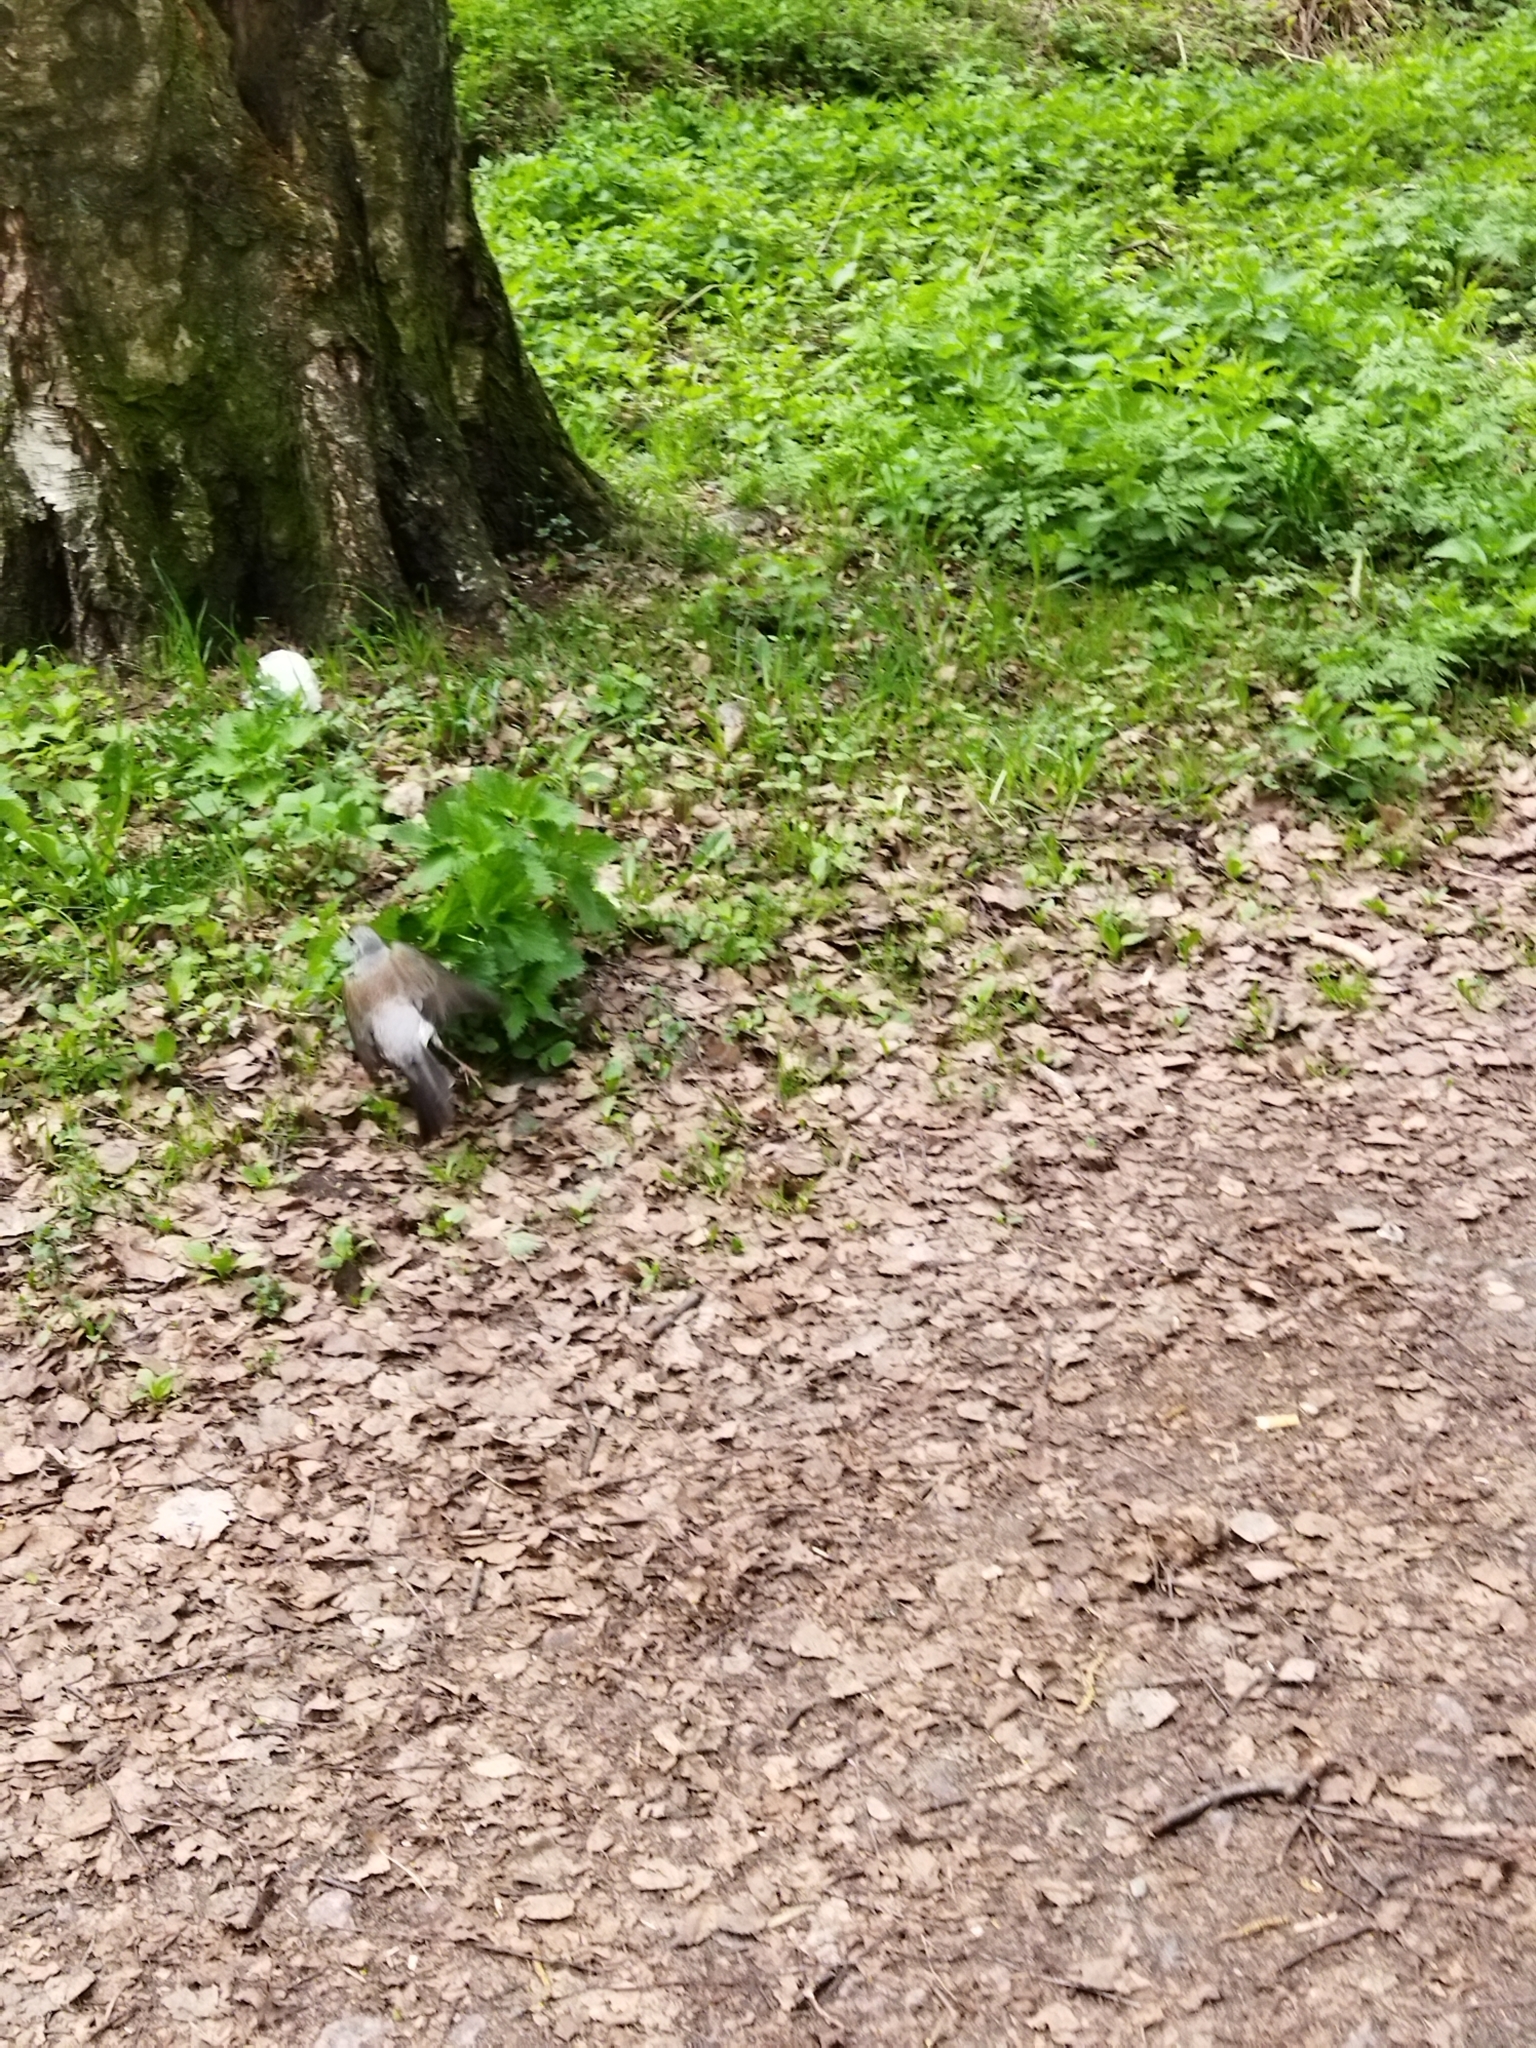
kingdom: Animalia
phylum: Chordata
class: Aves
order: Passeriformes
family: Turdidae
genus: Turdus
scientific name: Turdus pilaris
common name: Fieldfare
